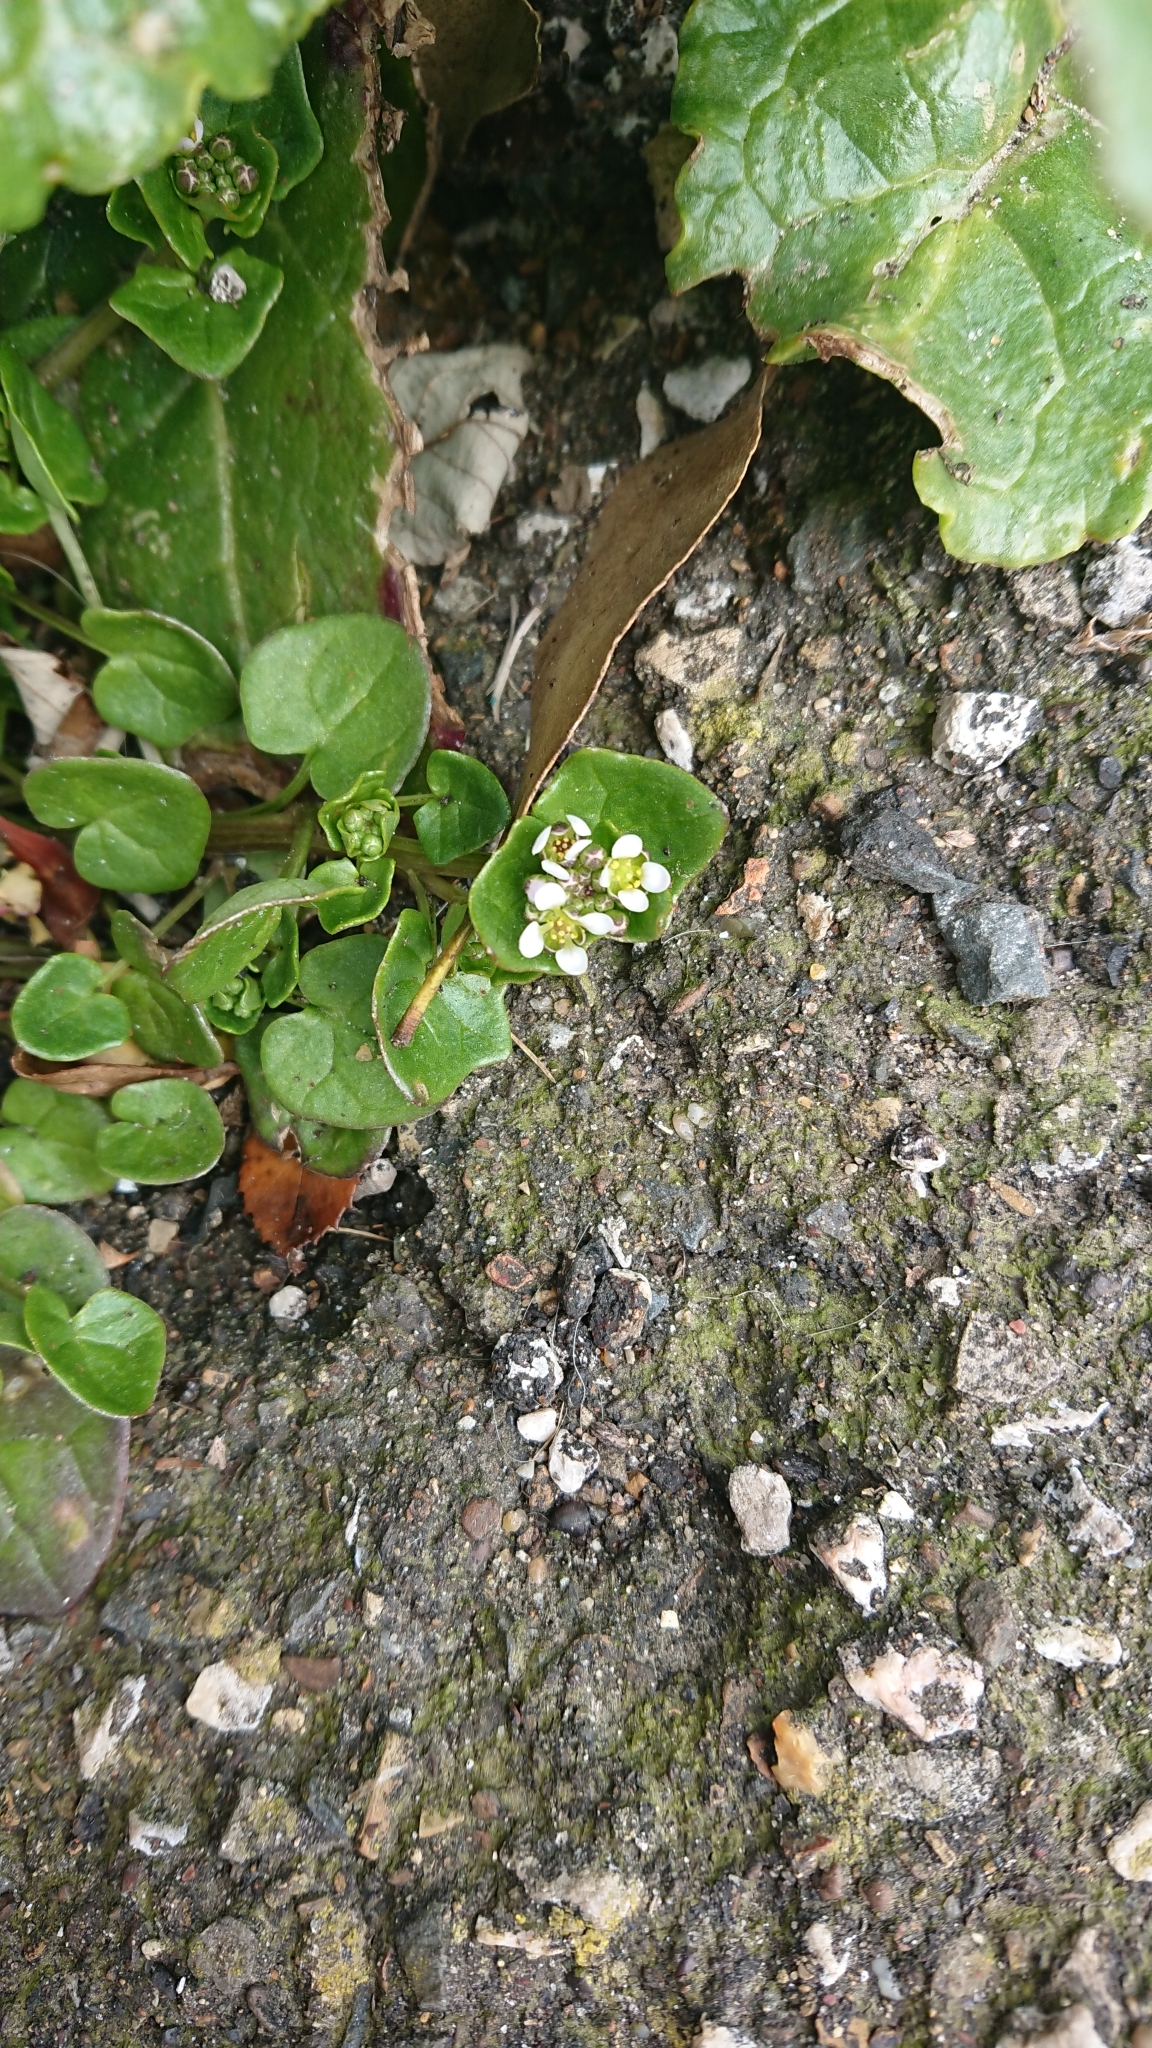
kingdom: Plantae
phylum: Tracheophyta
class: Magnoliopsida
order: Brassicales
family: Brassicaceae
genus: Cochlearia
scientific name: Cochlearia officinalis
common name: Scurvy-grass
